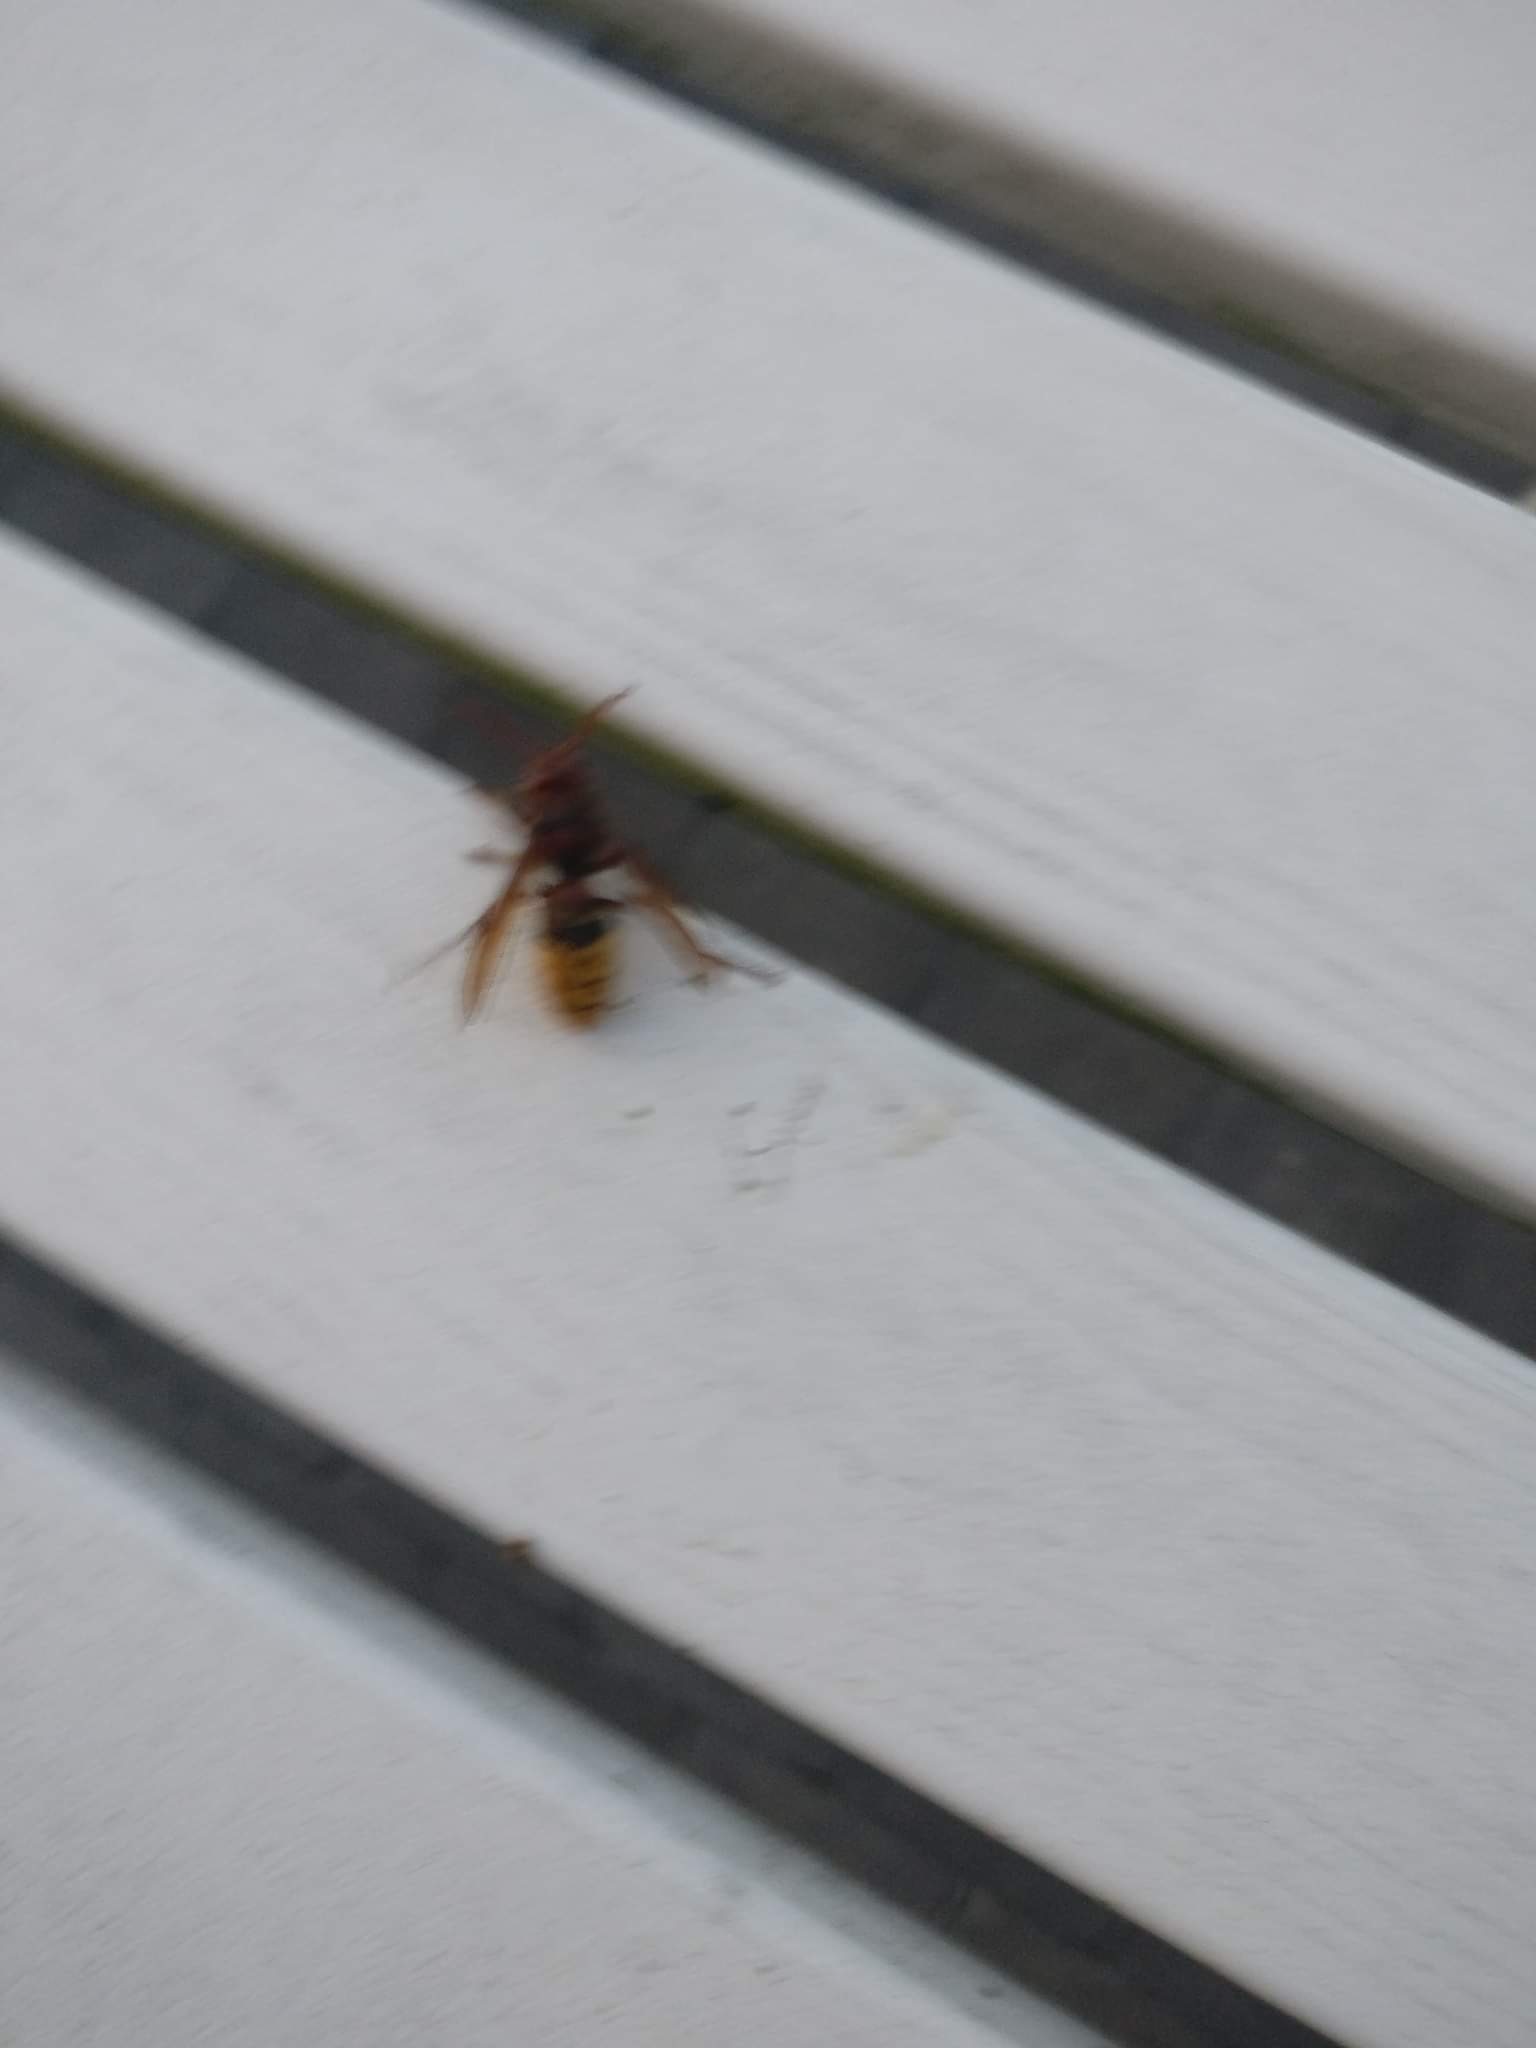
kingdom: Animalia
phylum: Arthropoda
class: Insecta
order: Hymenoptera
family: Vespidae
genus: Vespa
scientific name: Vespa crabro
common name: Hornet
